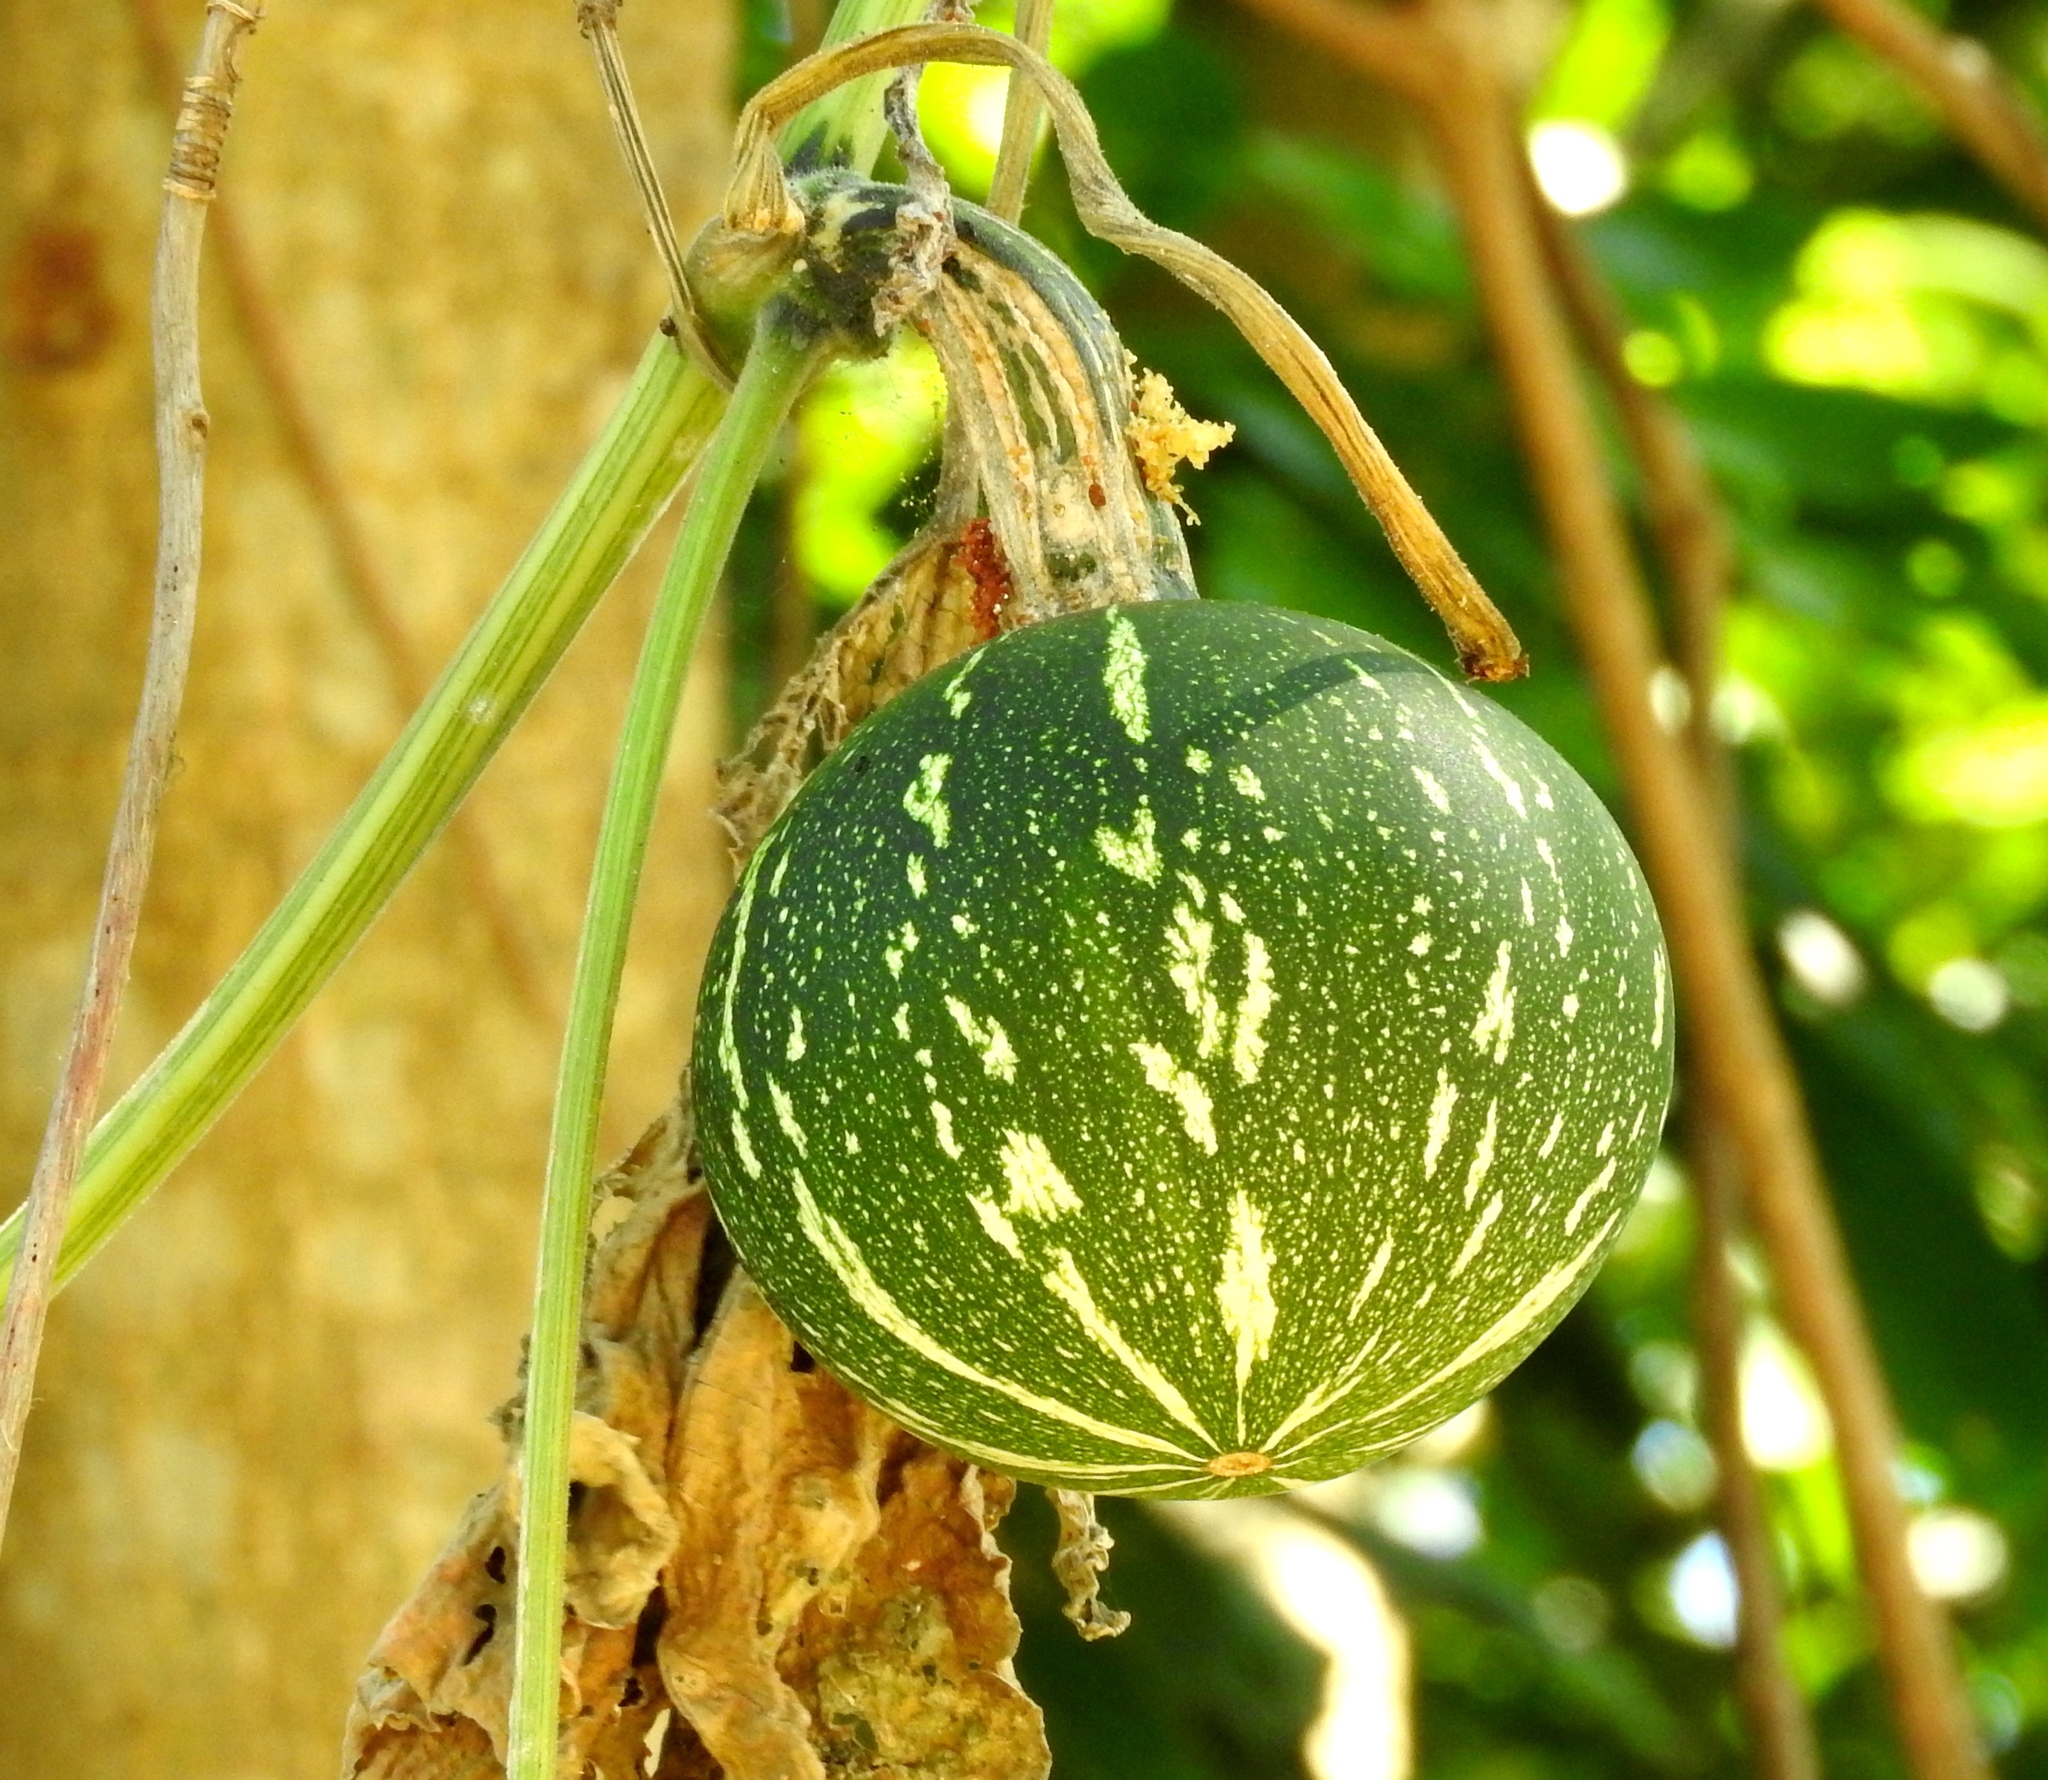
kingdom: Plantae
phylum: Tracheophyta
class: Magnoliopsida
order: Cucurbitales
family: Cucurbitaceae
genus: Cucurbita
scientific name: Cucurbita argyrosperma
